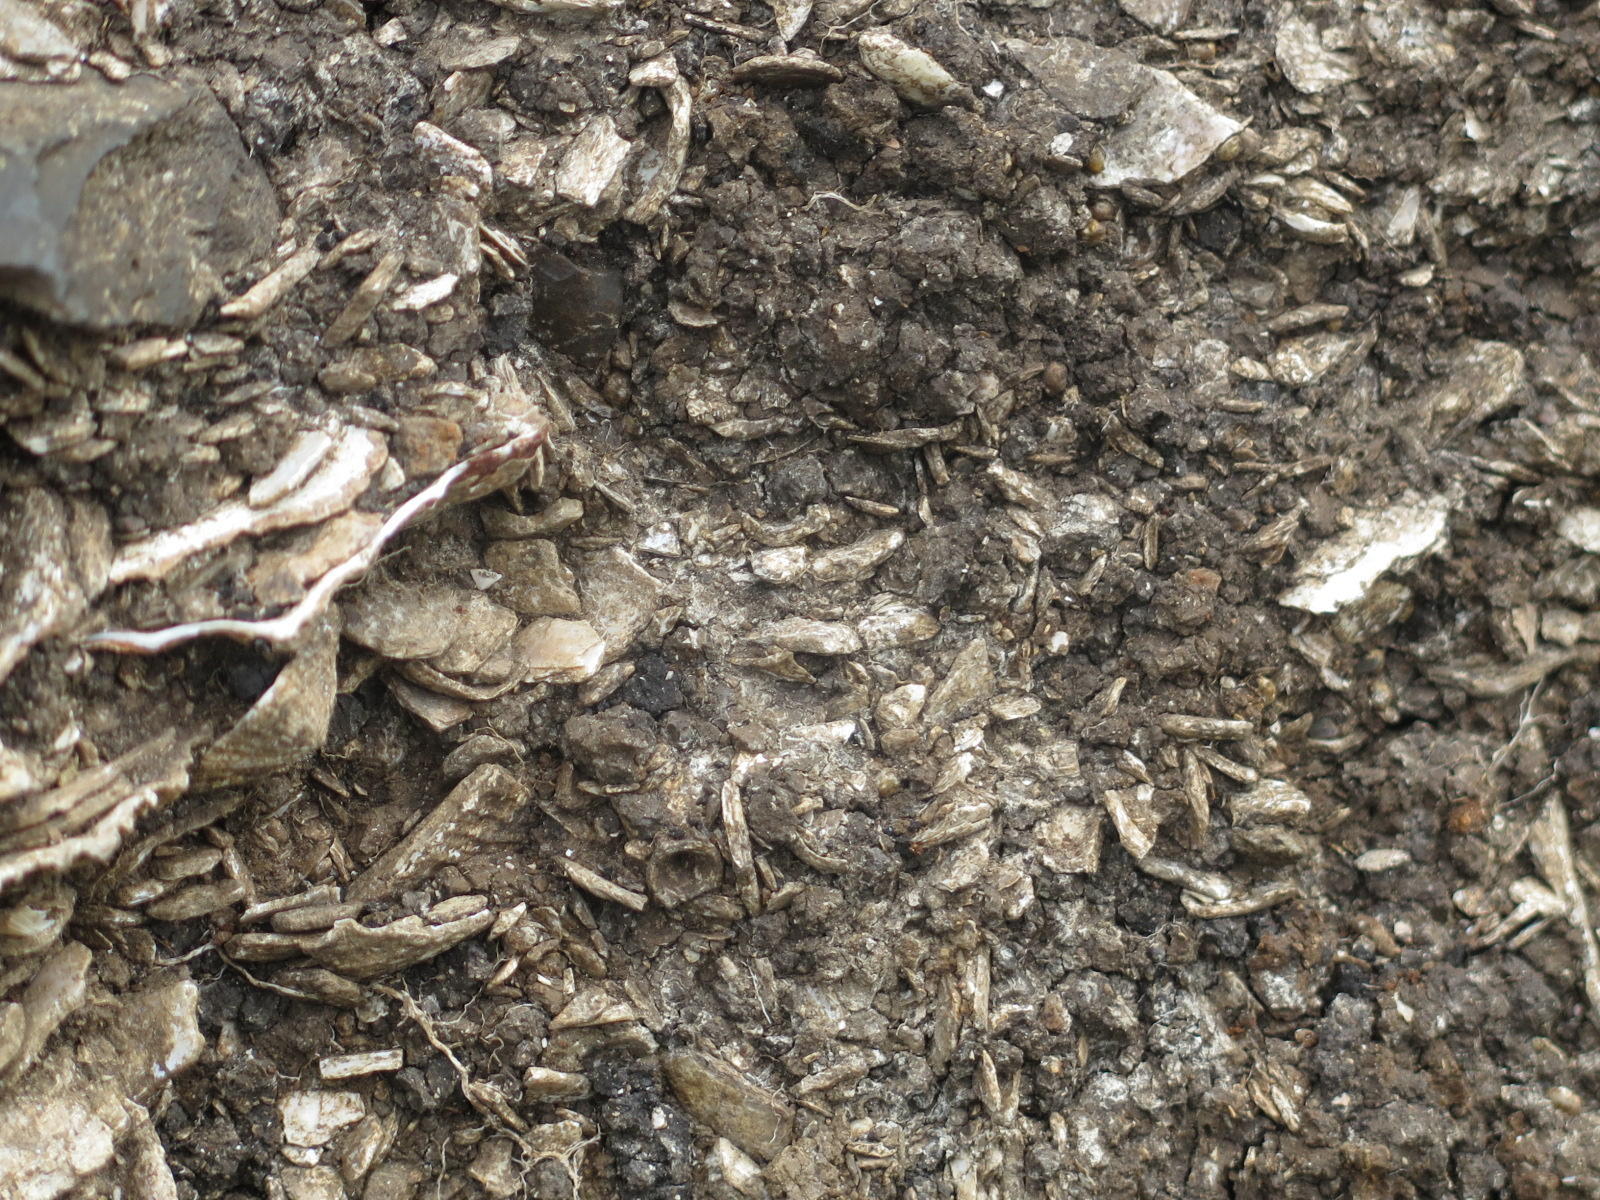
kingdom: Animalia
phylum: Mollusca
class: Gastropoda
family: Patellidae
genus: Cymbula
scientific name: Cymbula oculus
